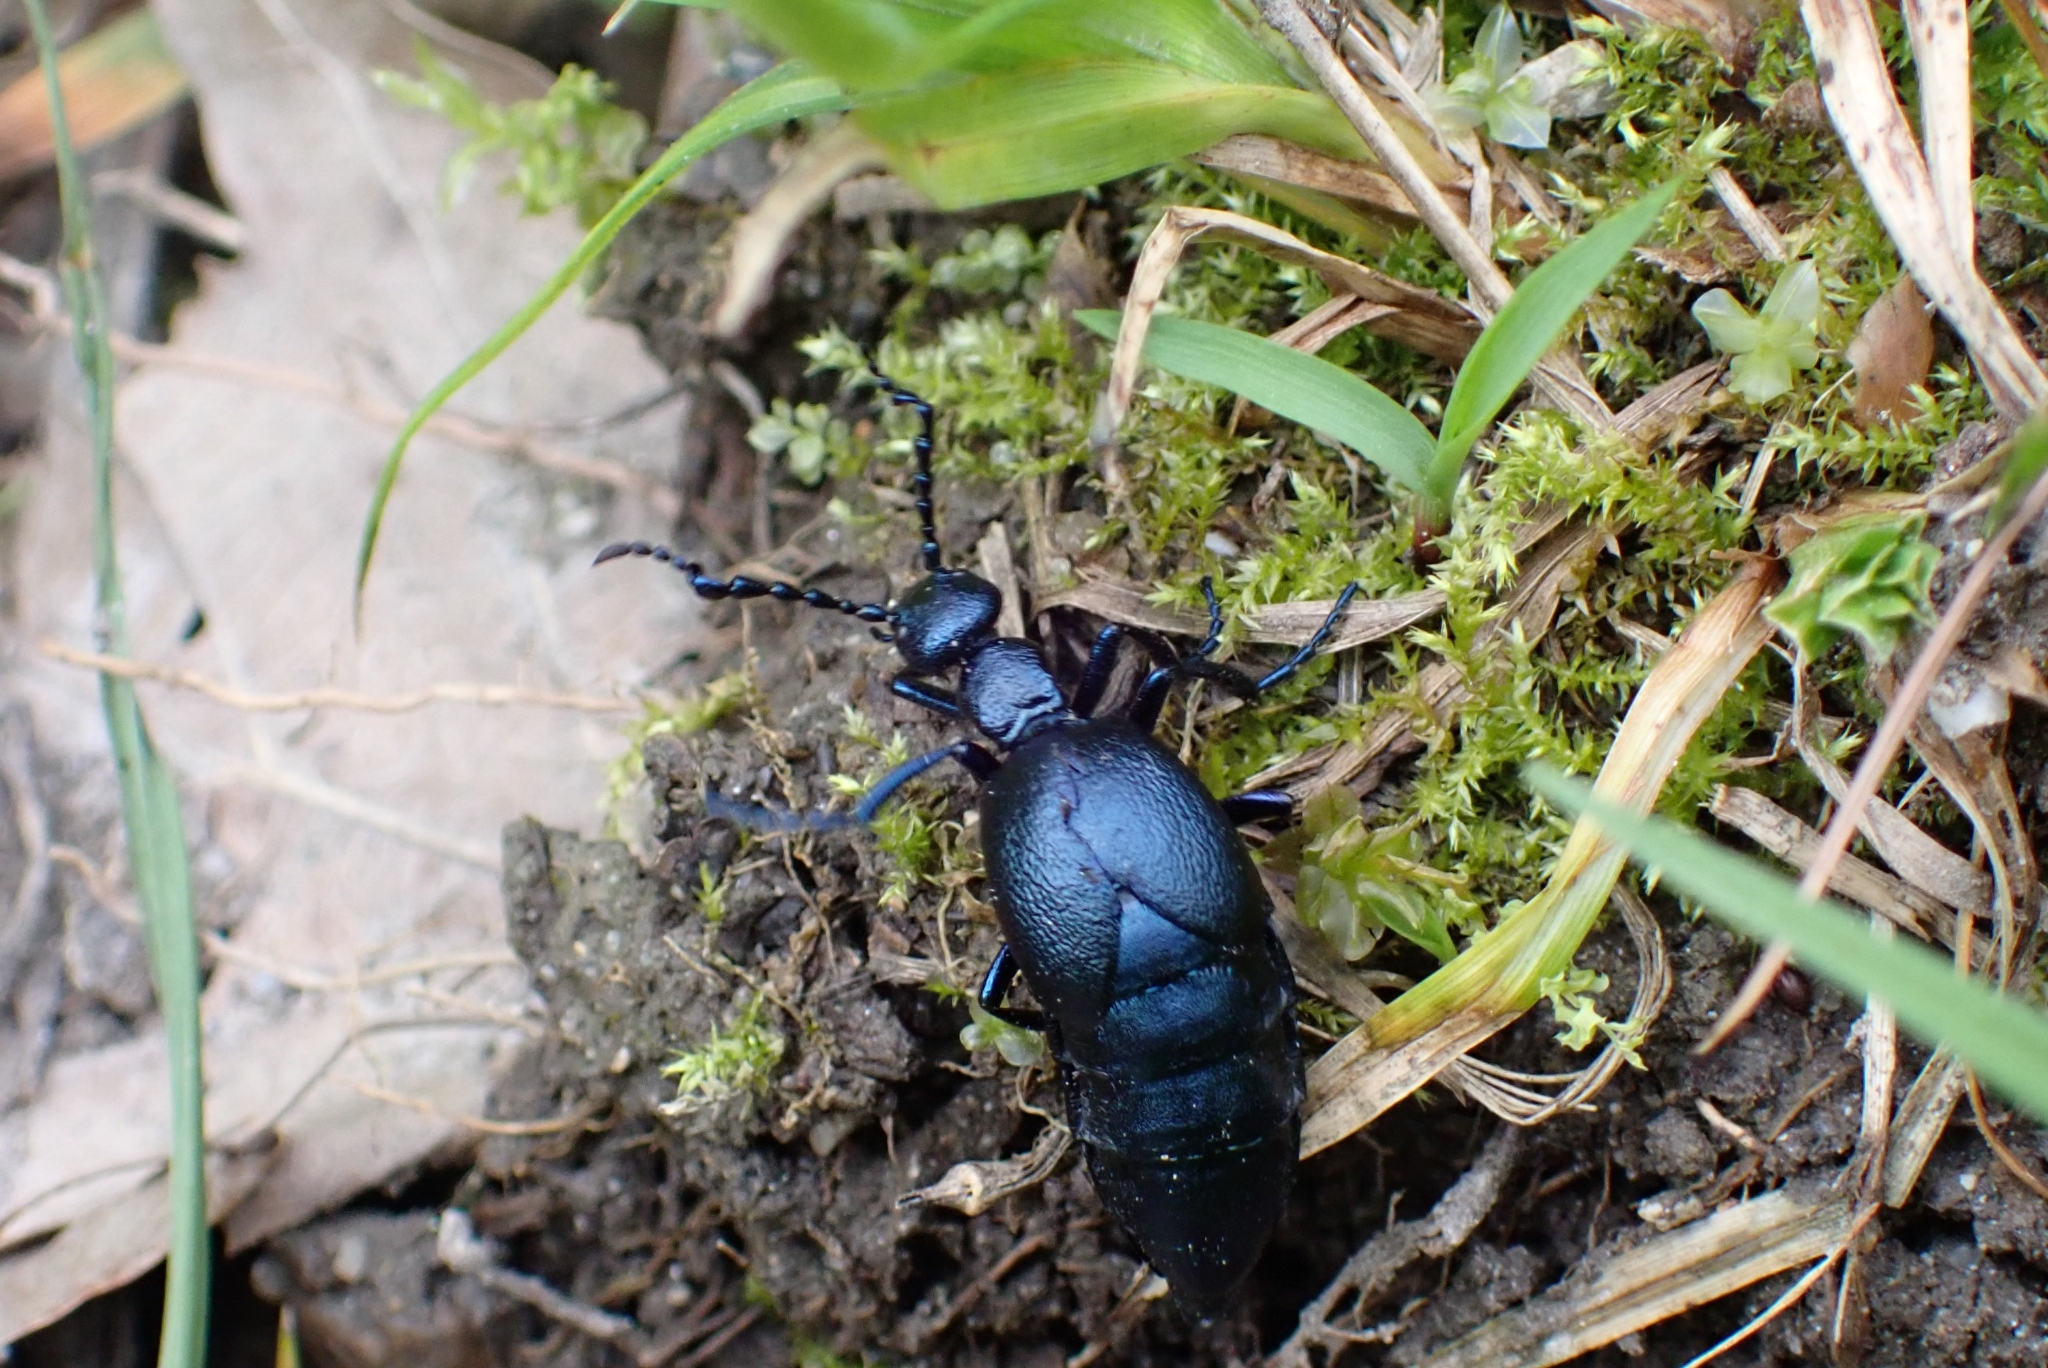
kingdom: Animalia
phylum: Arthropoda
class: Insecta
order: Coleoptera
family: Meloidae
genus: Meloe
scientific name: Meloe violaceus
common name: Violet oil-beetle
